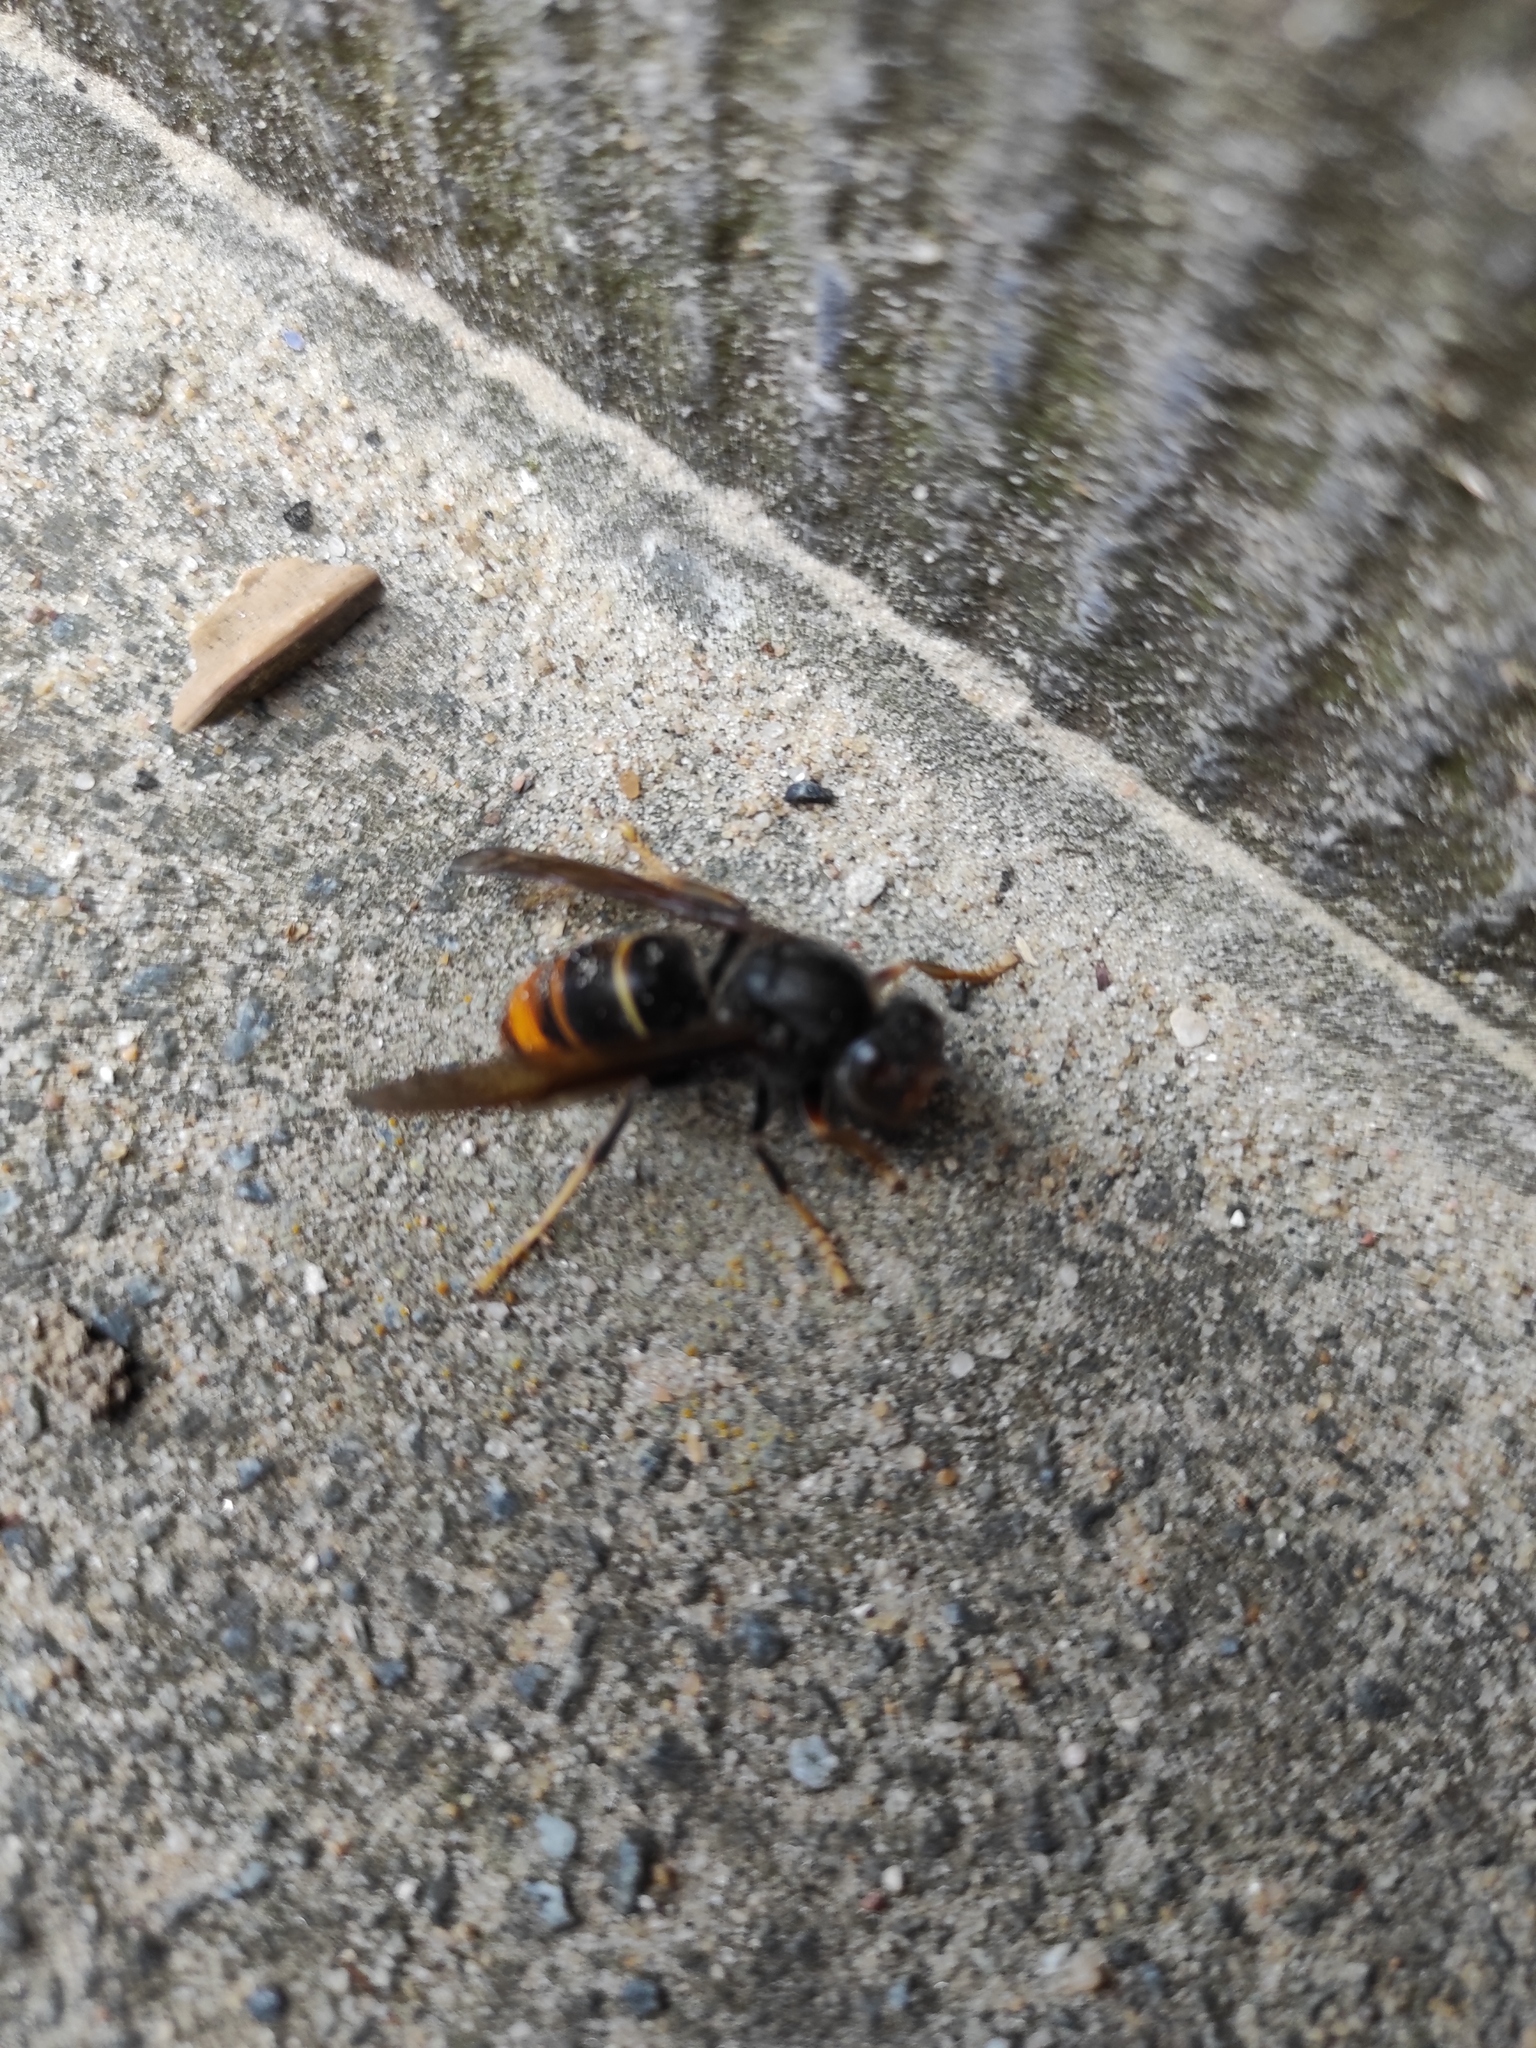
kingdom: Animalia
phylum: Arthropoda
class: Insecta
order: Hymenoptera
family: Vespidae
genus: Vespa
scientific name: Vespa velutina
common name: Asian hornet
